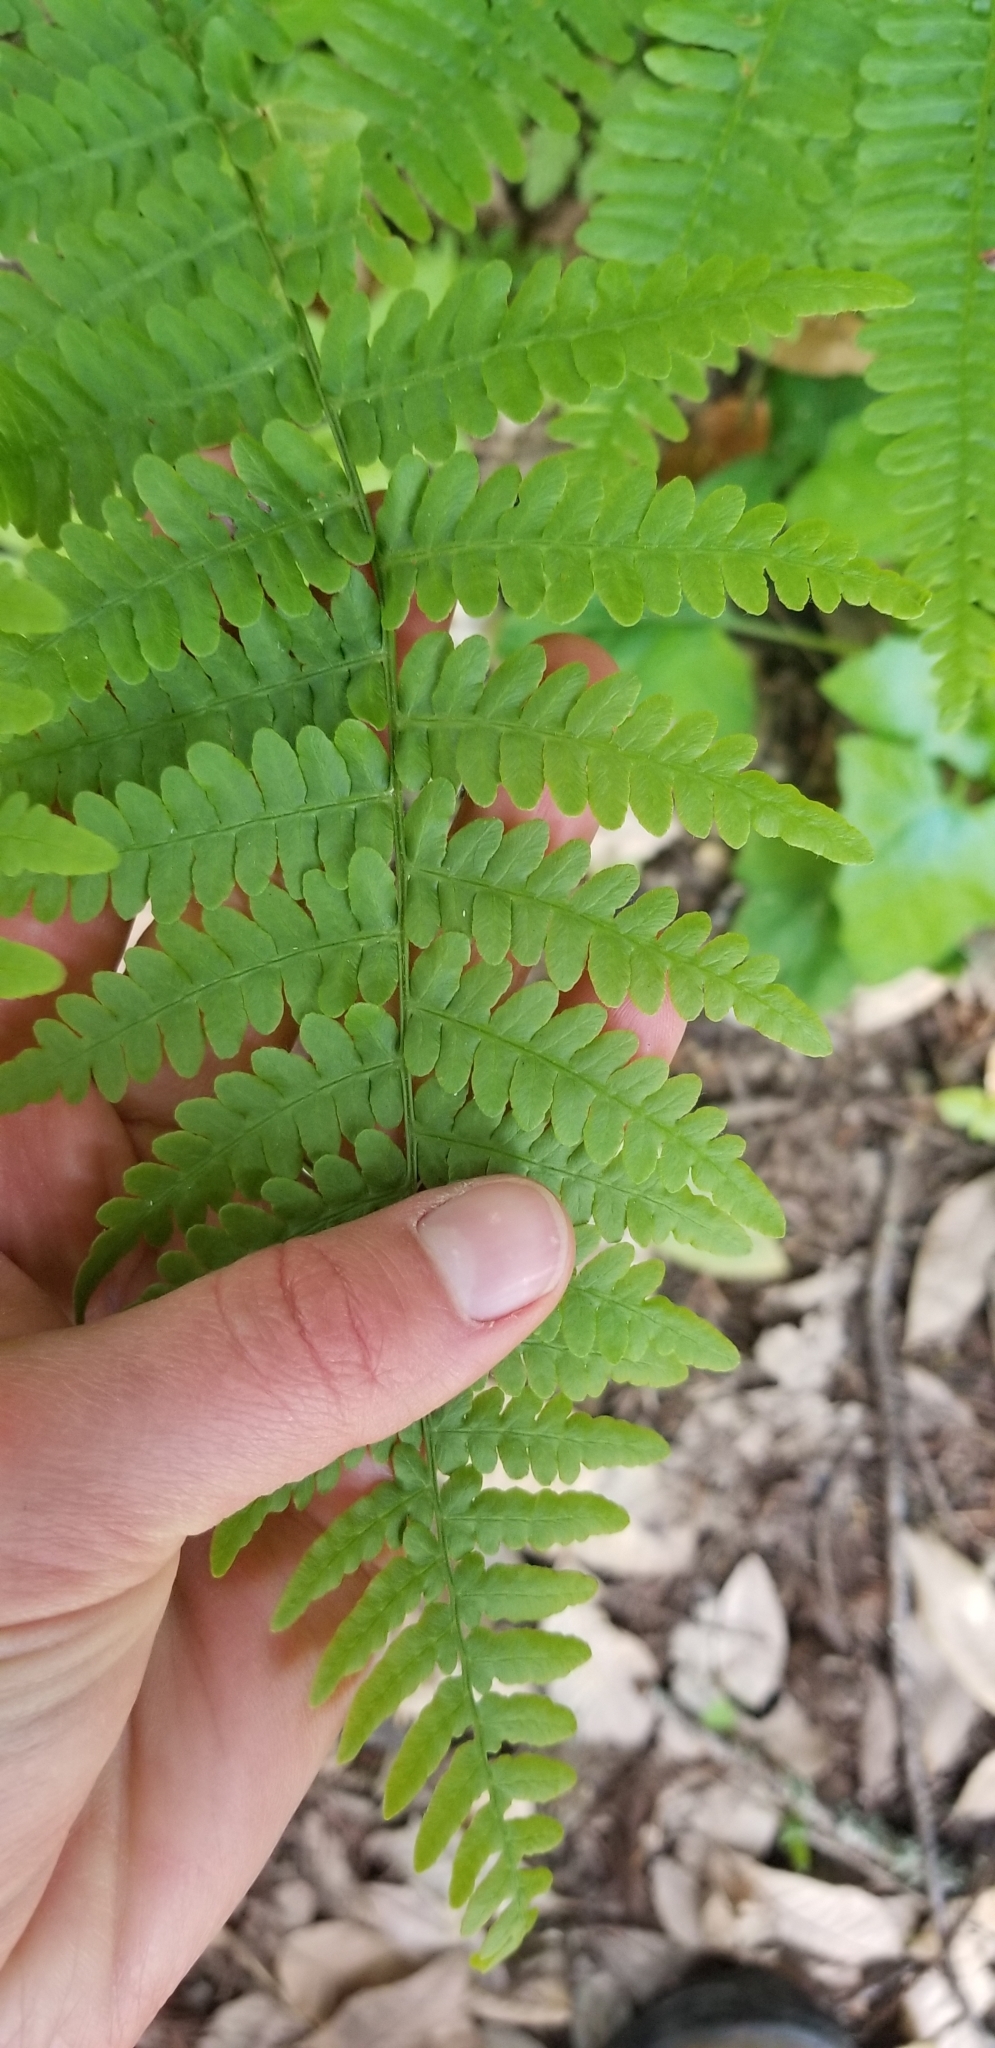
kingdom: Plantae
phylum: Tracheophyta
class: Polypodiopsida
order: Polypodiales
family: Dennstaedtiaceae
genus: Pteridium
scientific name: Pteridium aquilinum
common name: Bracken
